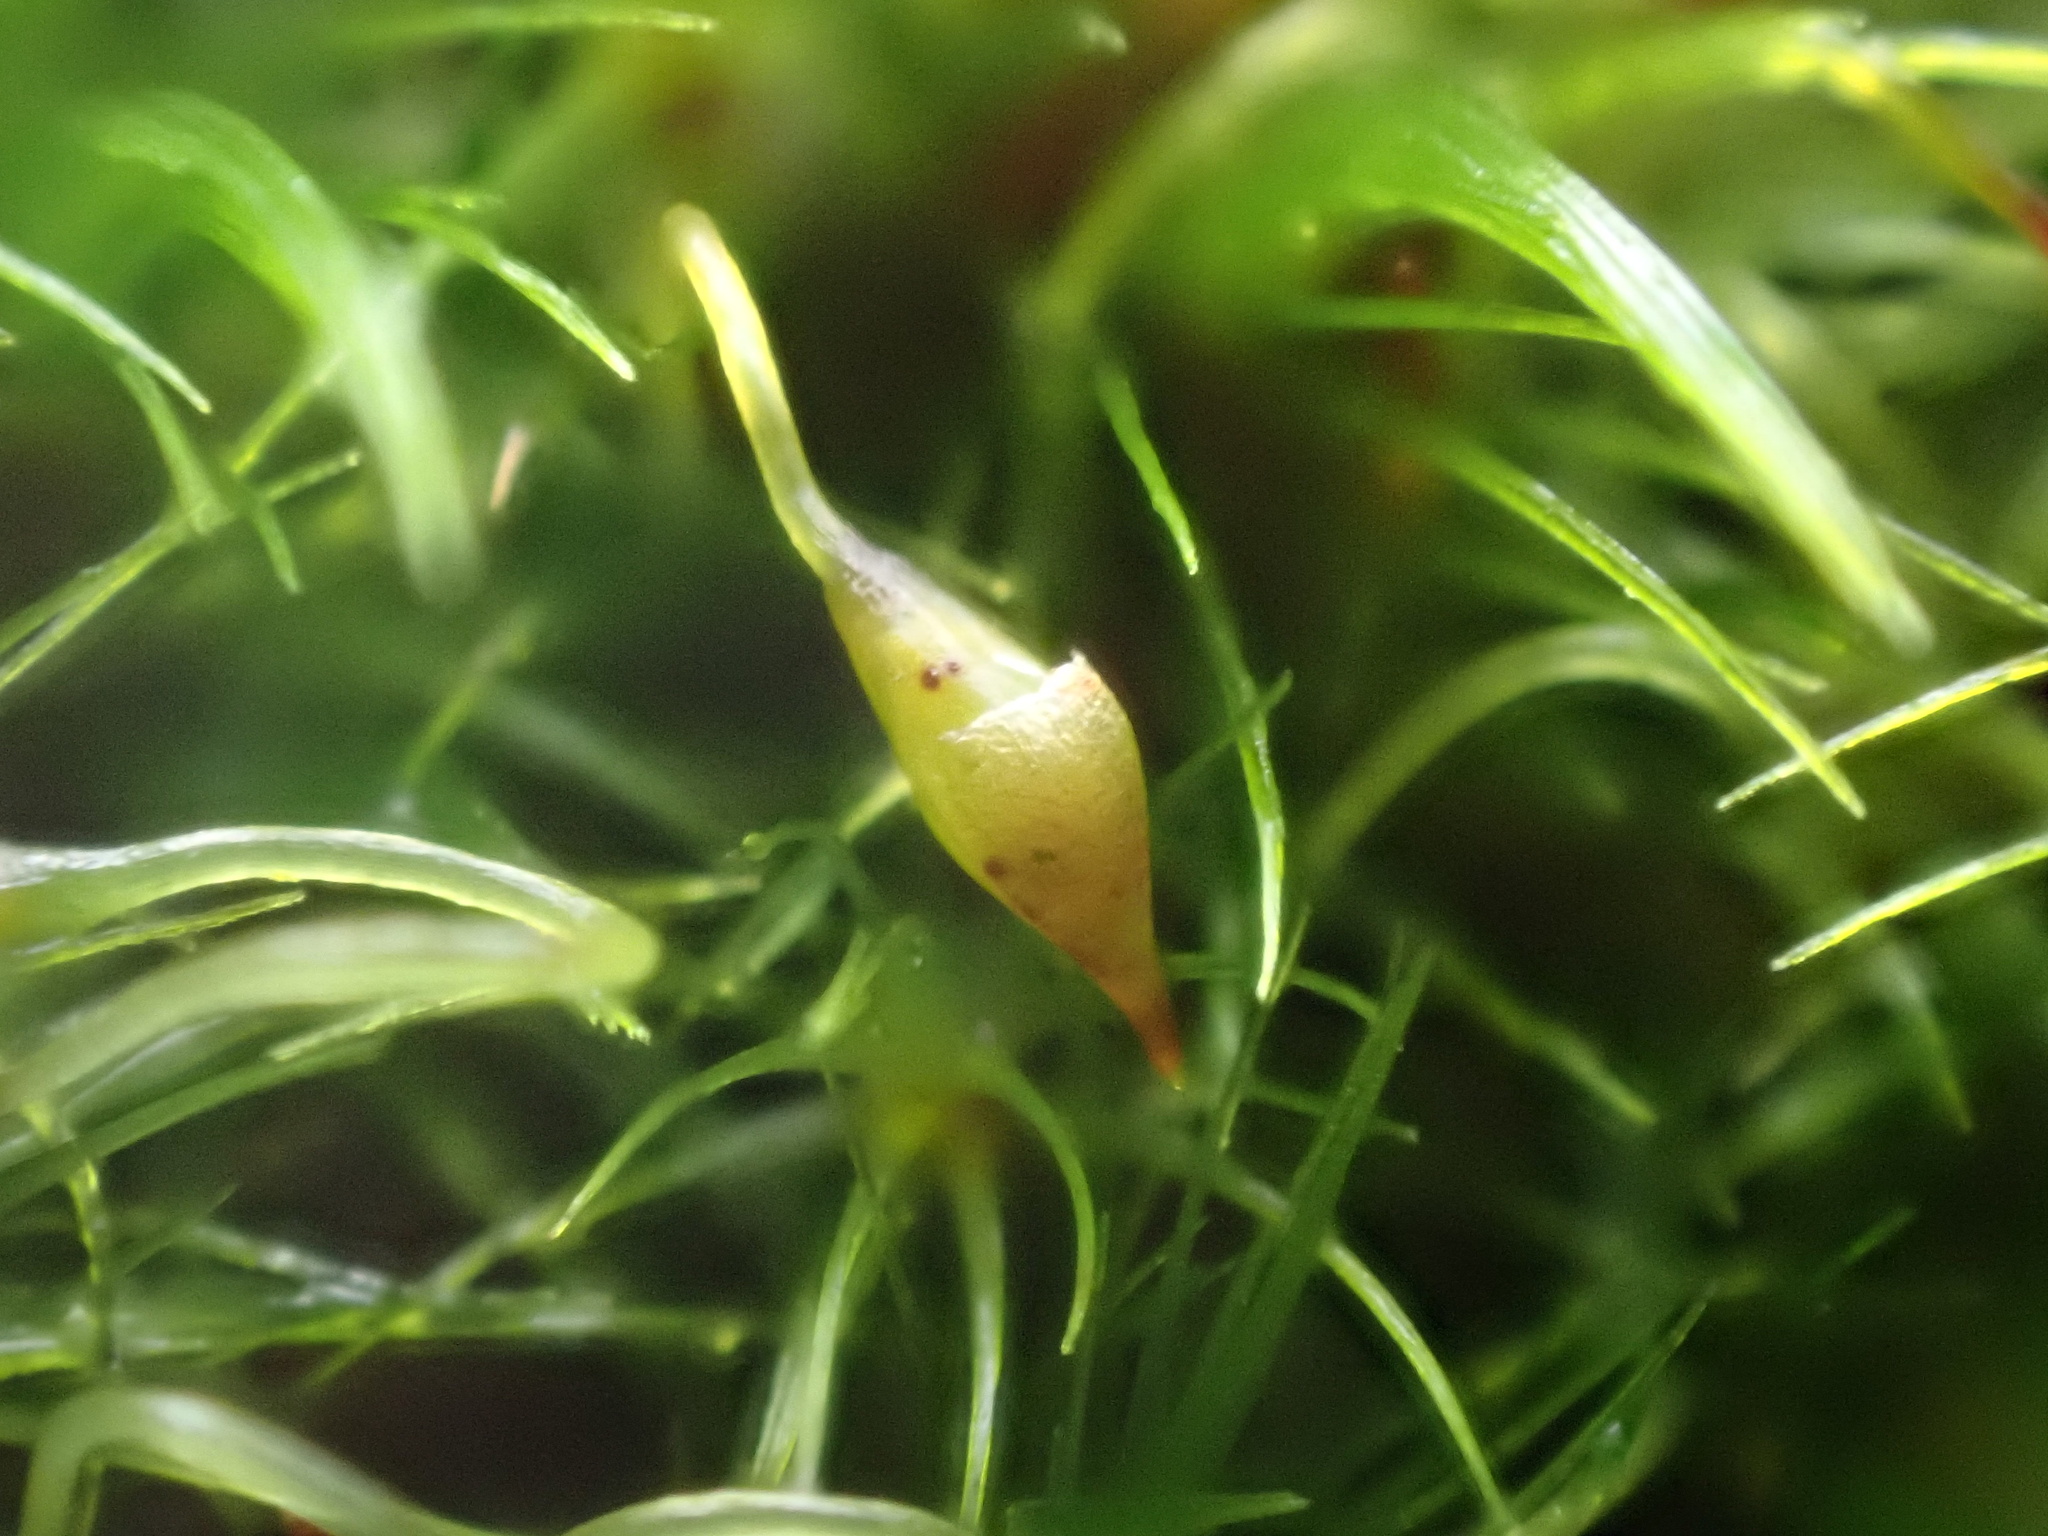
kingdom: Plantae
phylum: Bryophyta
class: Bryopsida
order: Dicranales
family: Leucobryaceae
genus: Campylopus
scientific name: Campylopus flexuosus
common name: Rusty swan-neck moss
